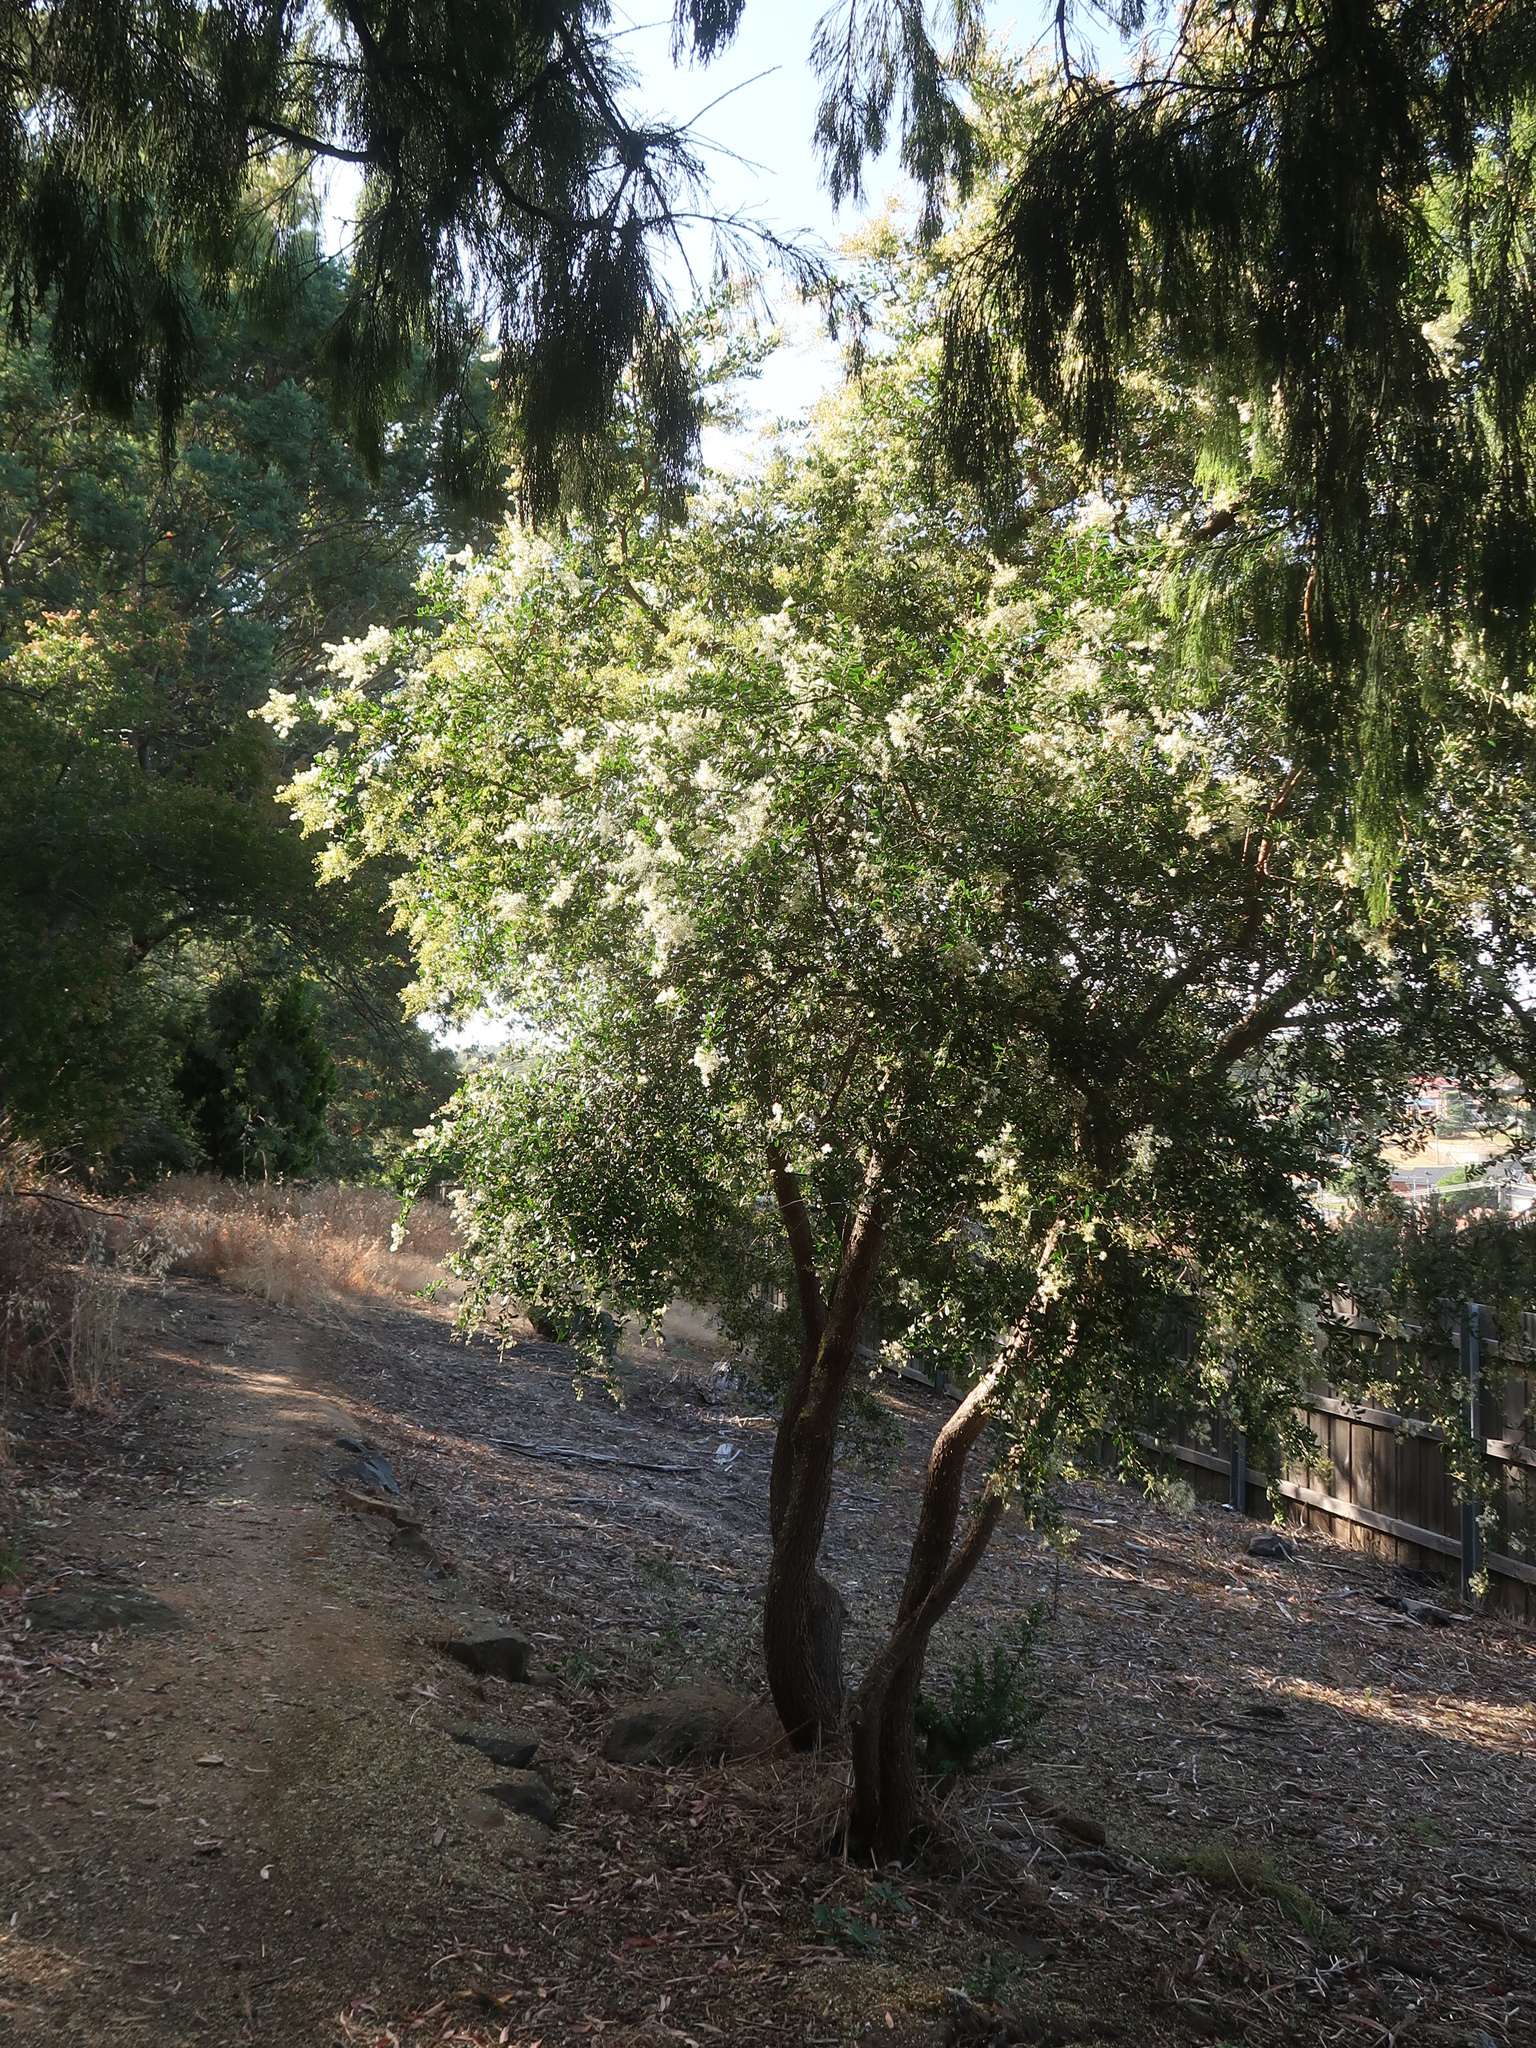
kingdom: Plantae
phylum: Tracheophyta
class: Magnoliopsida
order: Apiales
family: Pittosporaceae
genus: Bursaria
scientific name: Bursaria spinosa
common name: Australian blackthorn
